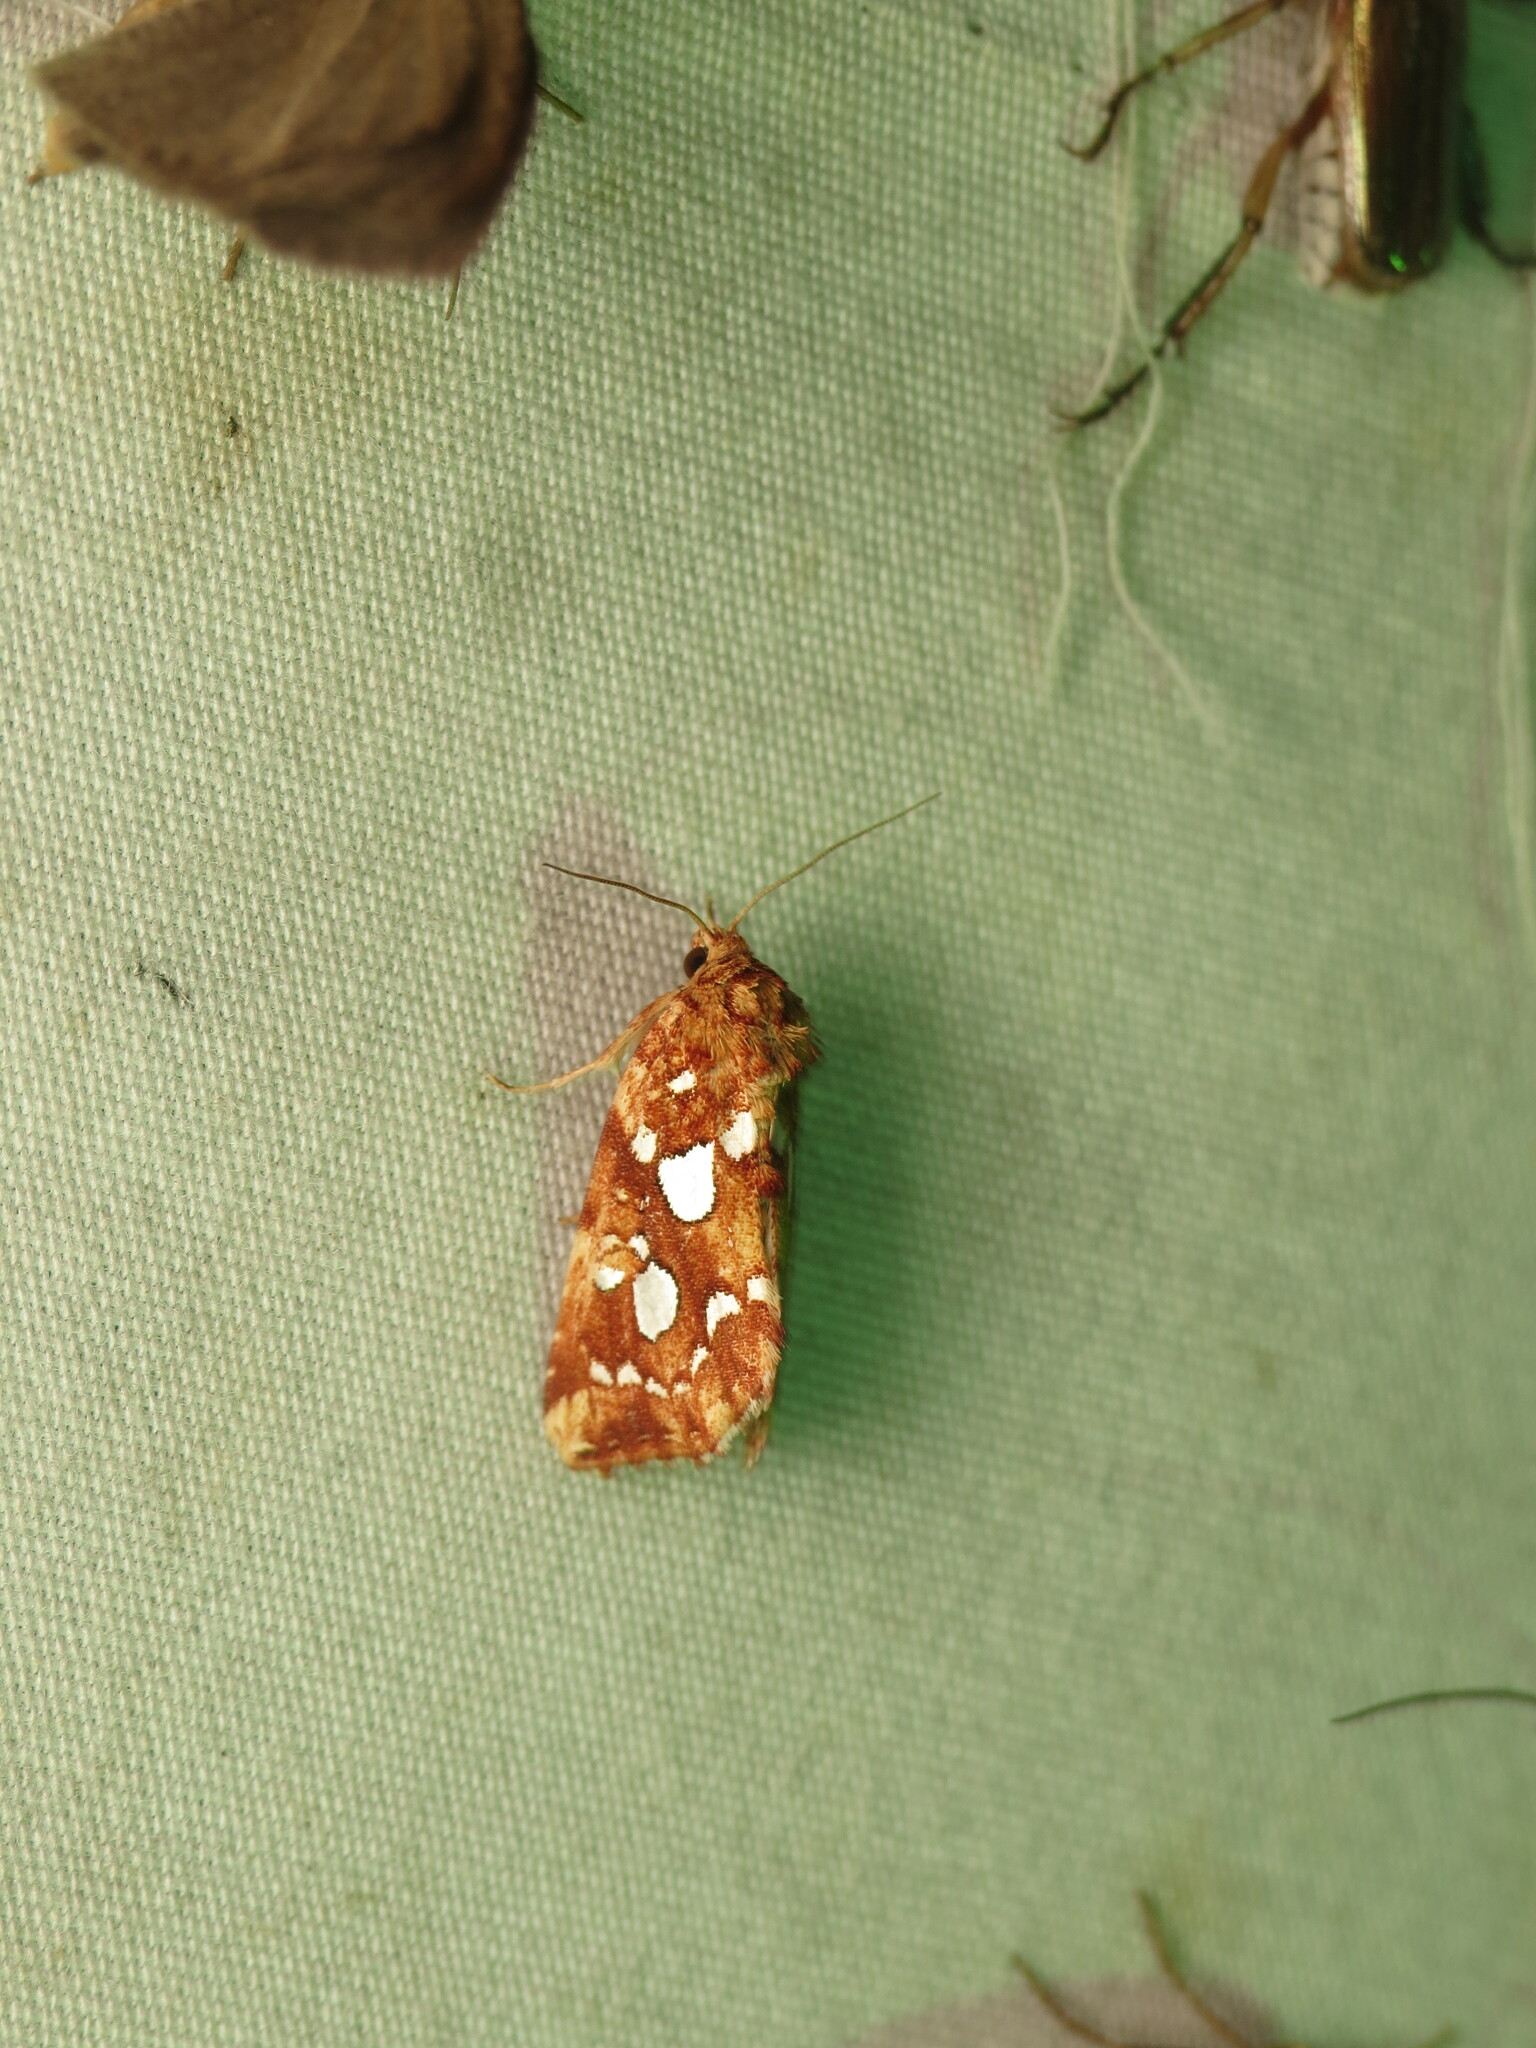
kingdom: Animalia
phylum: Arthropoda
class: Insecta
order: Lepidoptera
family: Noctuidae
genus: Callopistria
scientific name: Callopistria cordata
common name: Silver-spotted fern moth
